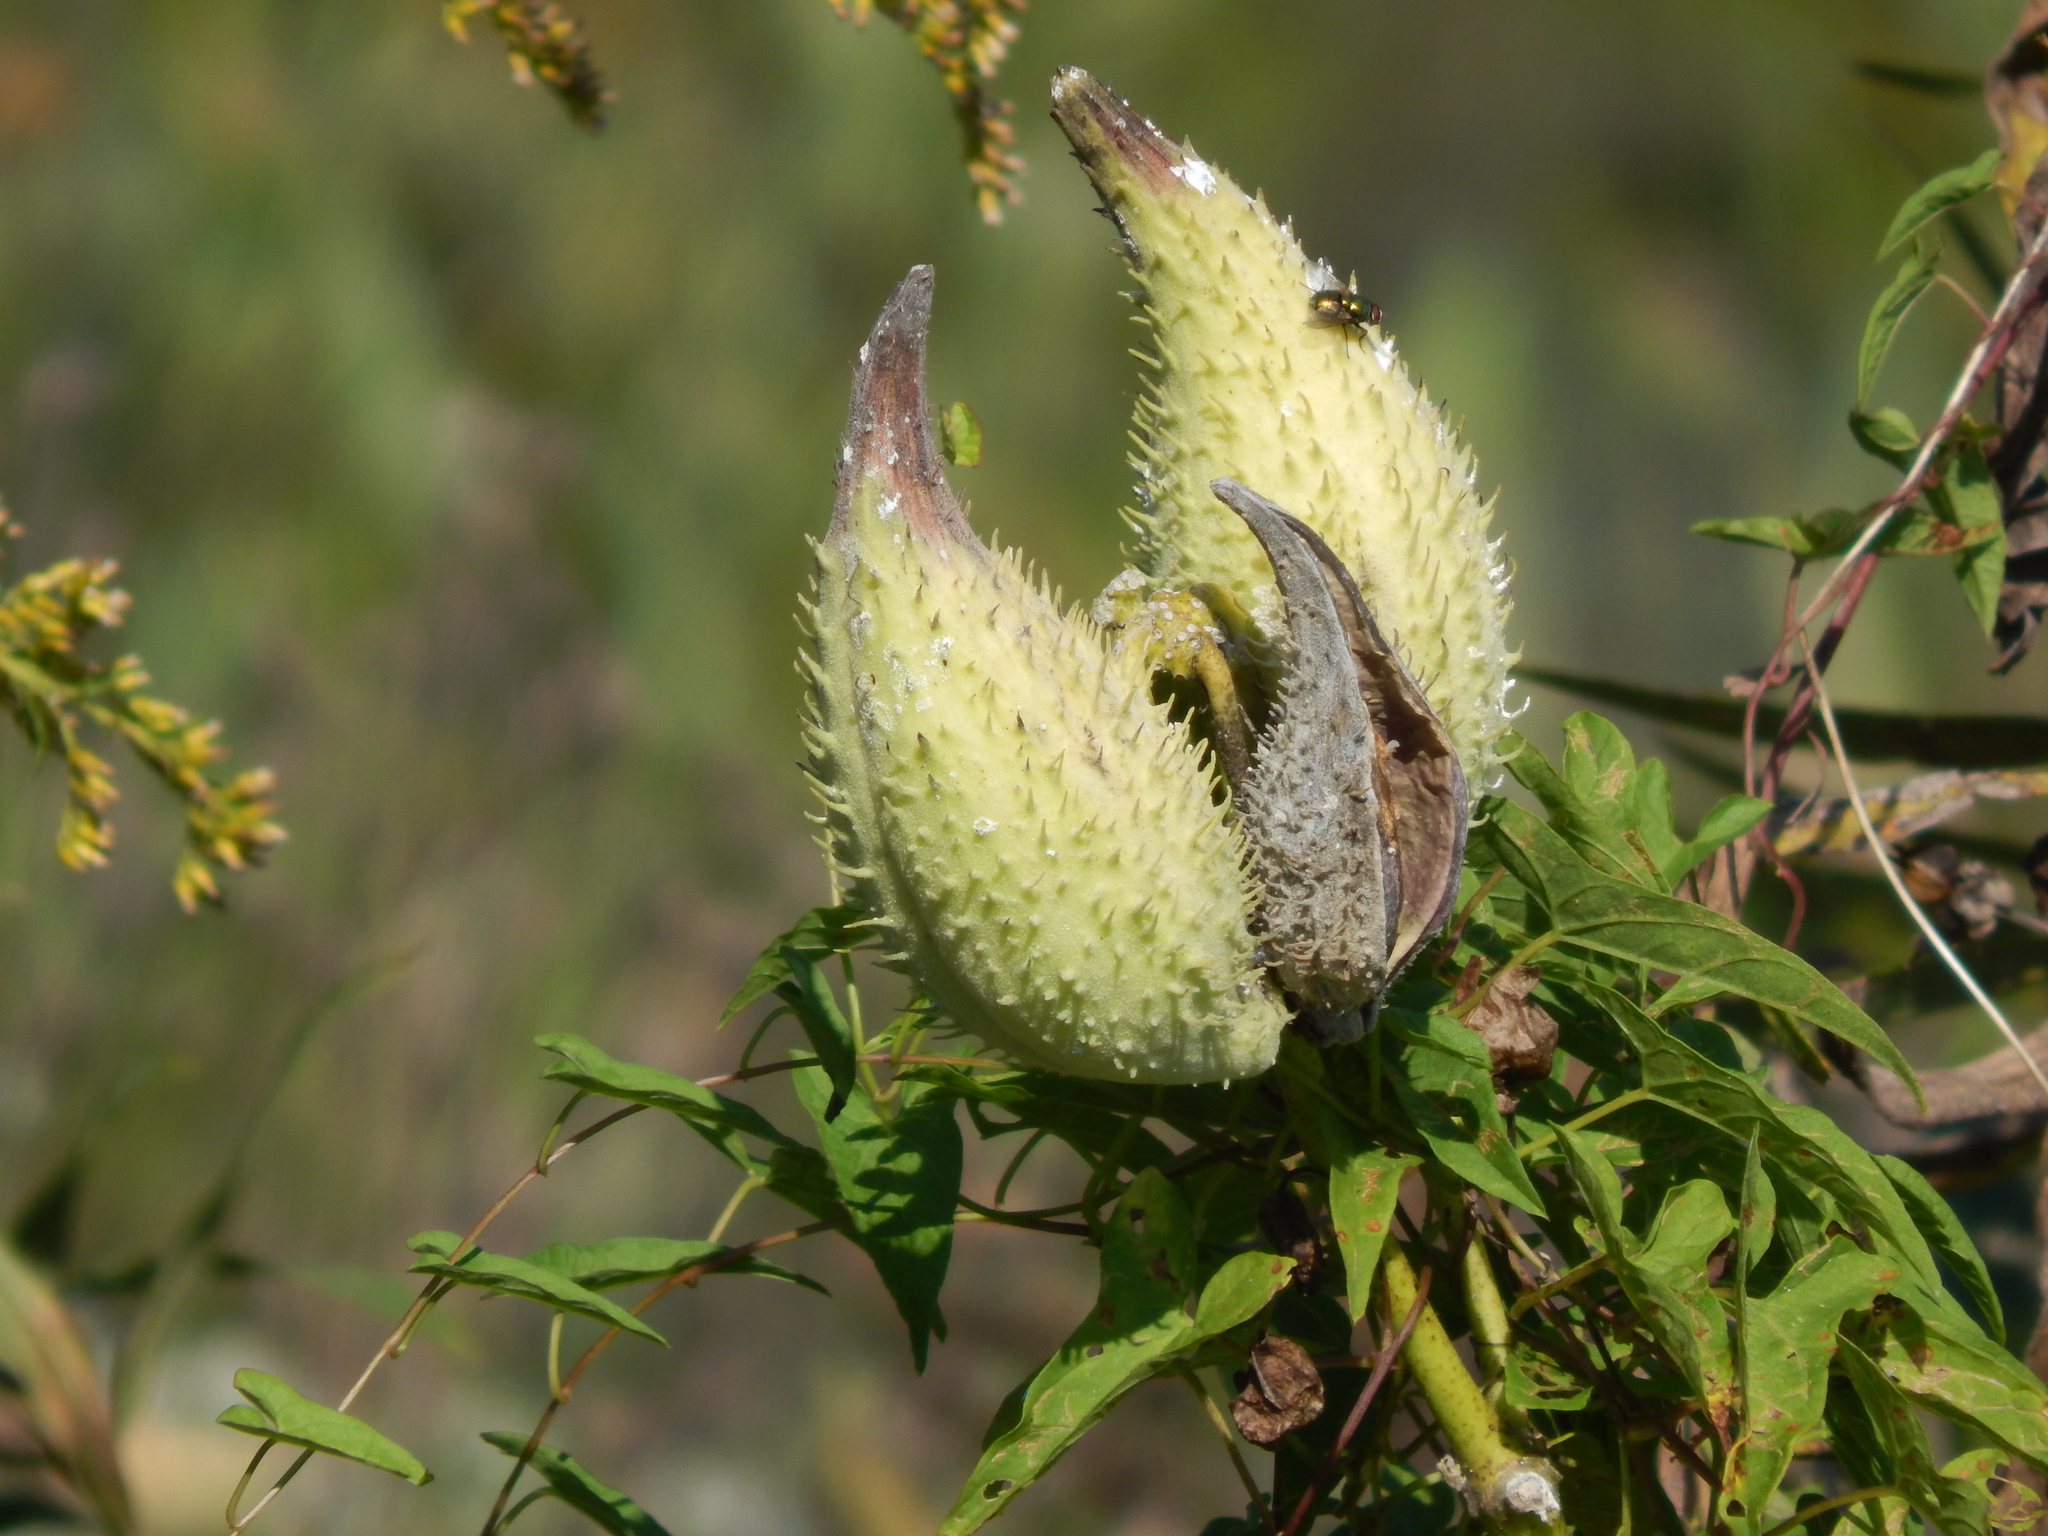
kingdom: Plantae
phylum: Tracheophyta
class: Magnoliopsida
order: Gentianales
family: Apocynaceae
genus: Asclepias
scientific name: Asclepias syriaca
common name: Common milkweed
